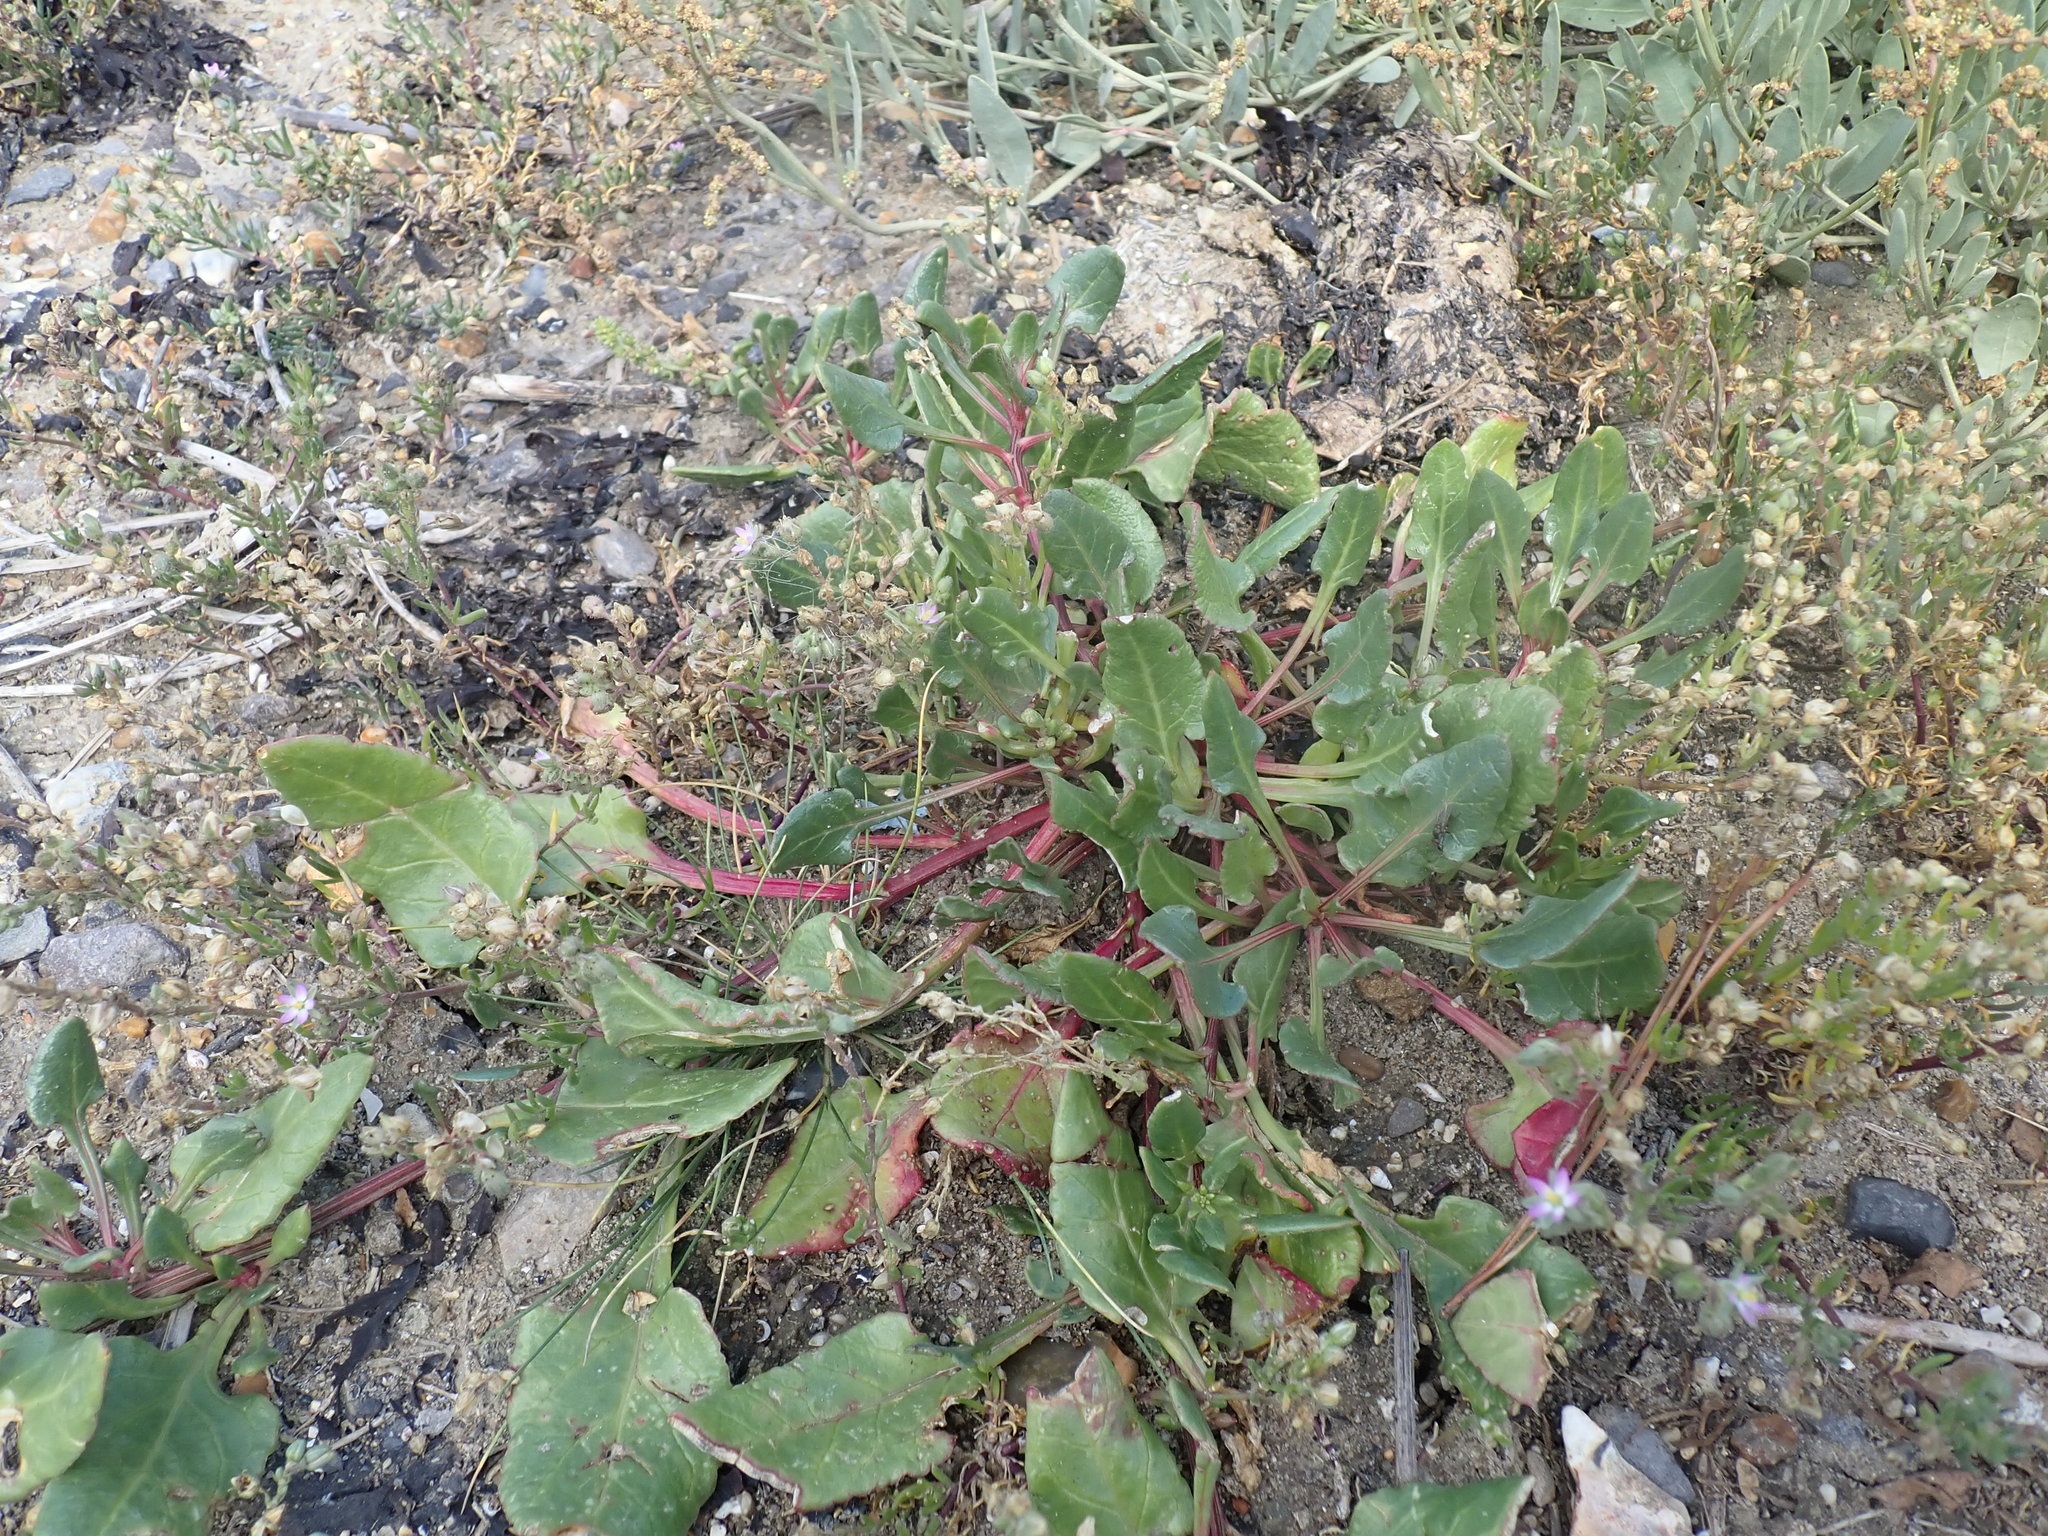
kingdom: Plantae
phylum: Tracheophyta
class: Magnoliopsida
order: Caryophyllales
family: Amaranthaceae
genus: Beta
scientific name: Beta vulgaris
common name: Beet
